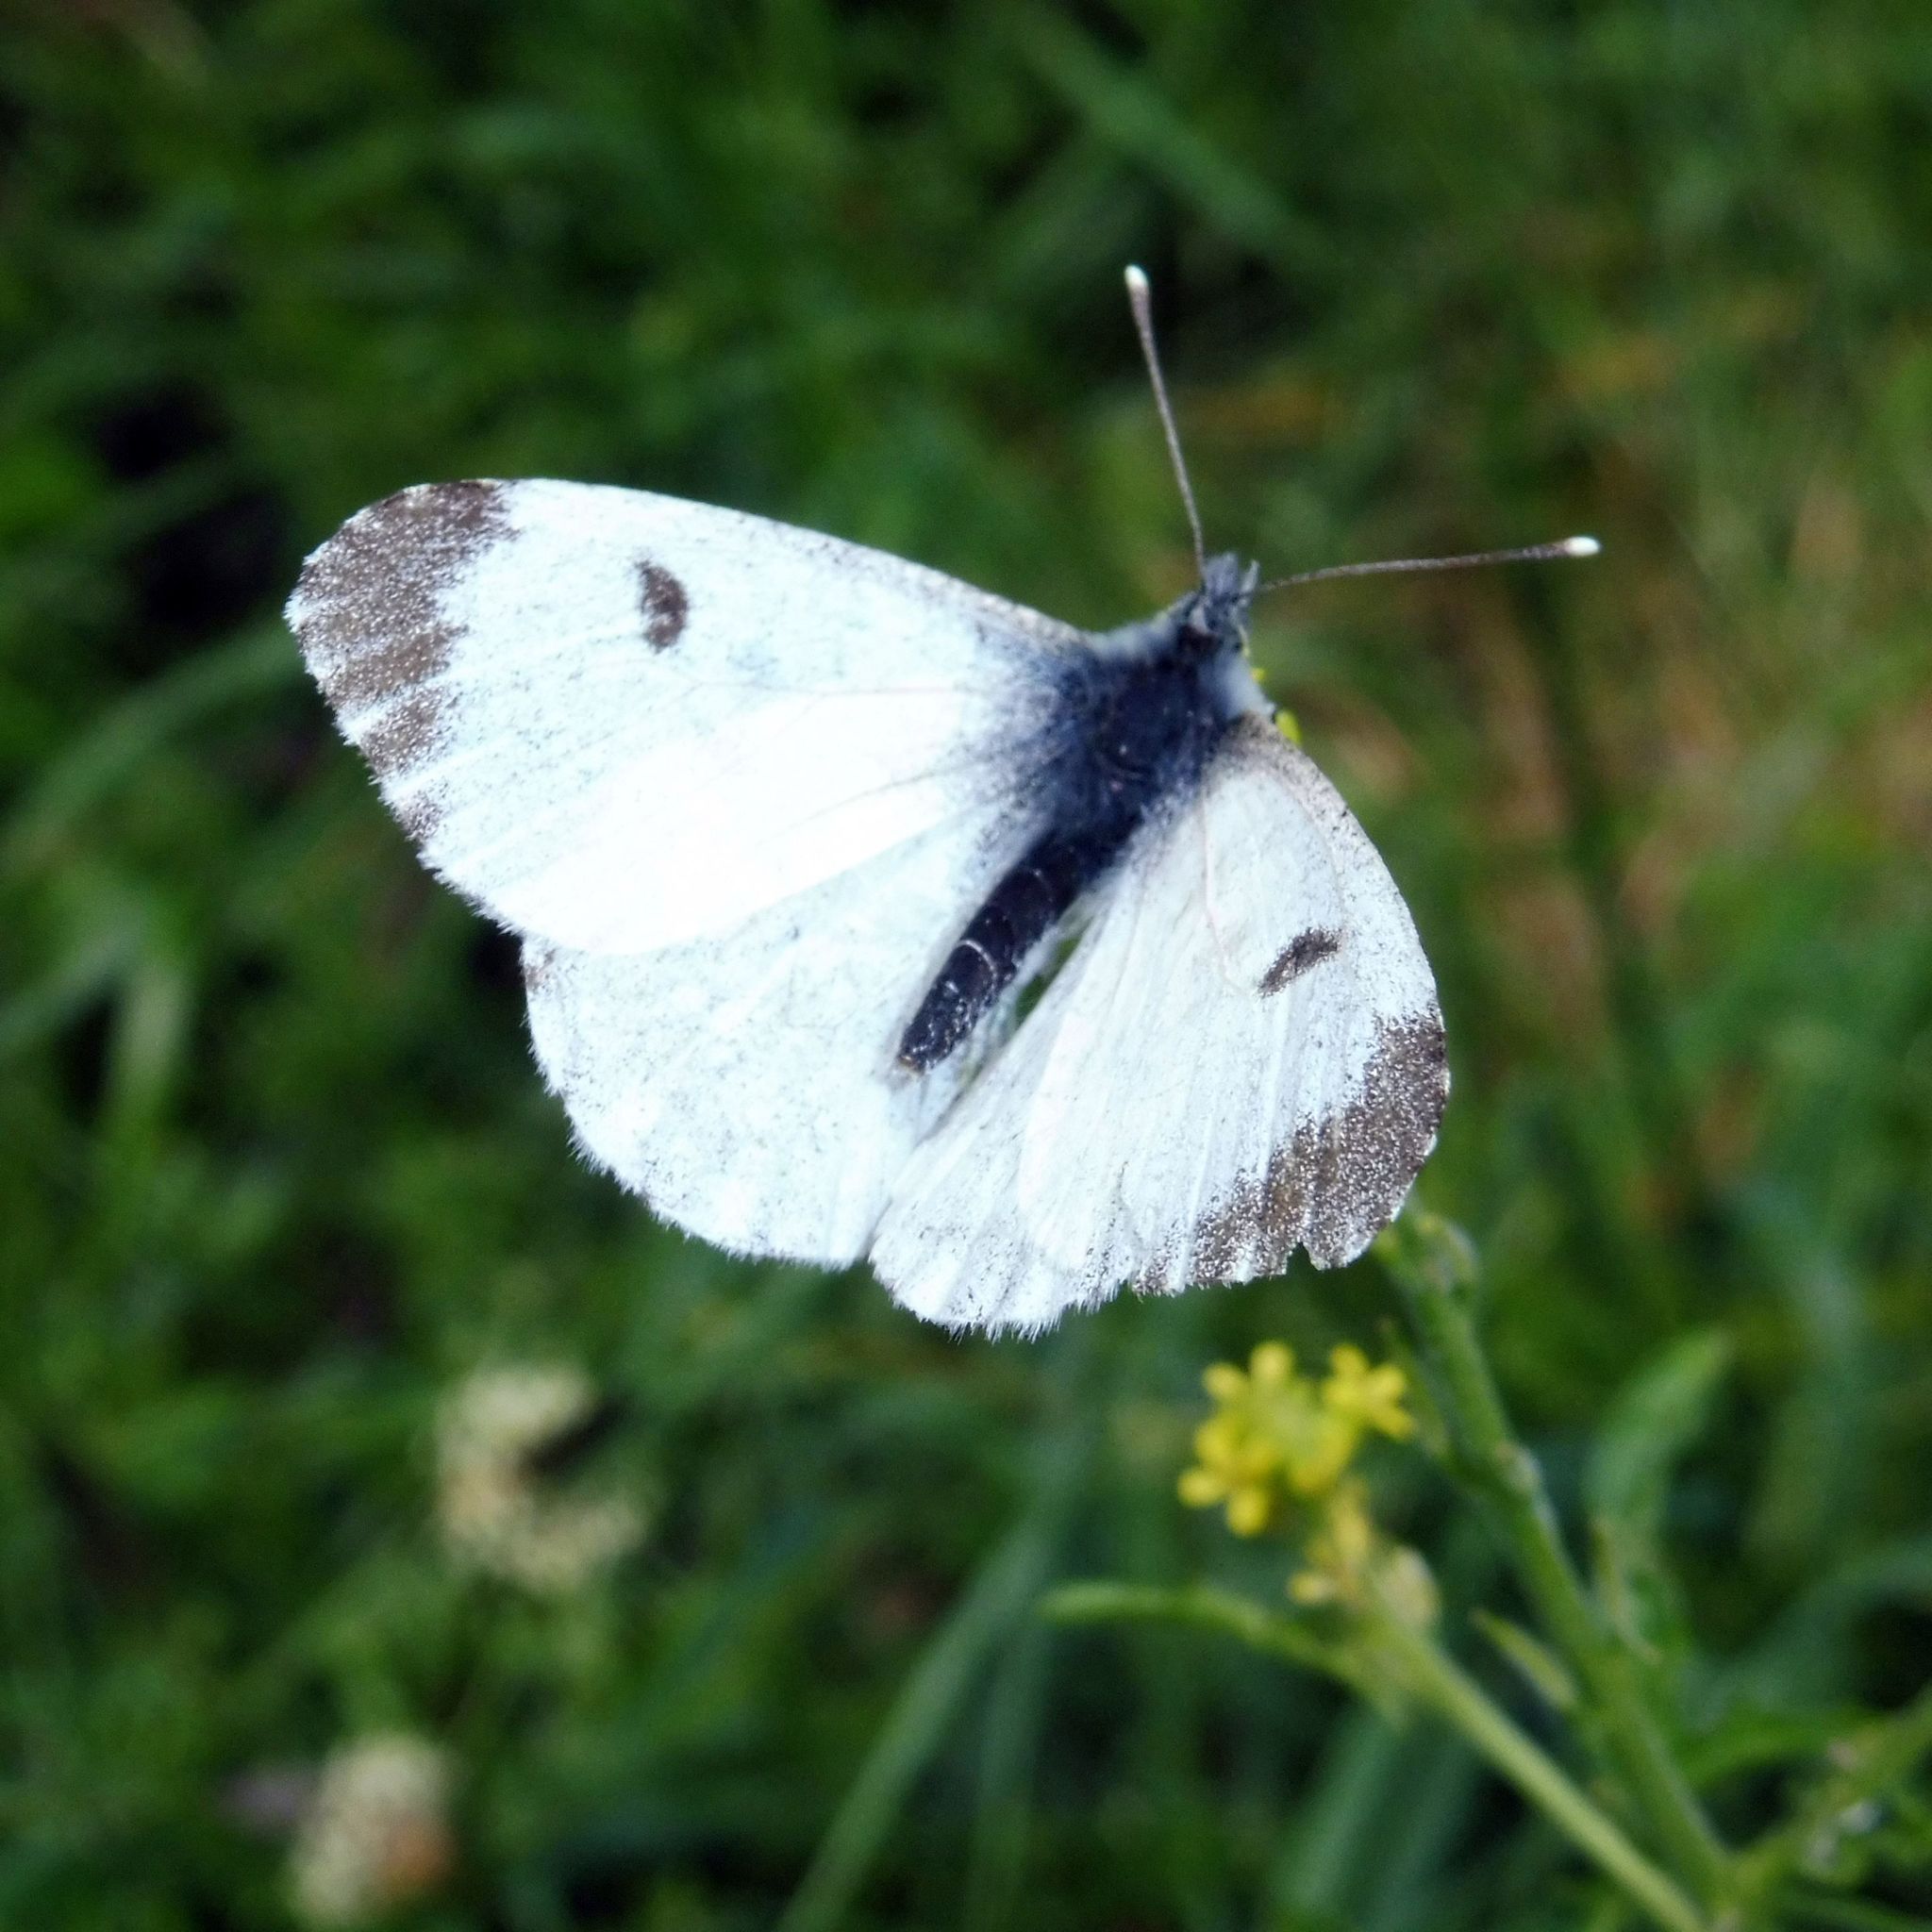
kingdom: Animalia
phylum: Arthropoda
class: Insecta
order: Lepidoptera
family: Pieridae
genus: Anthocharis
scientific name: Anthocharis cardamines
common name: Orange-tip
